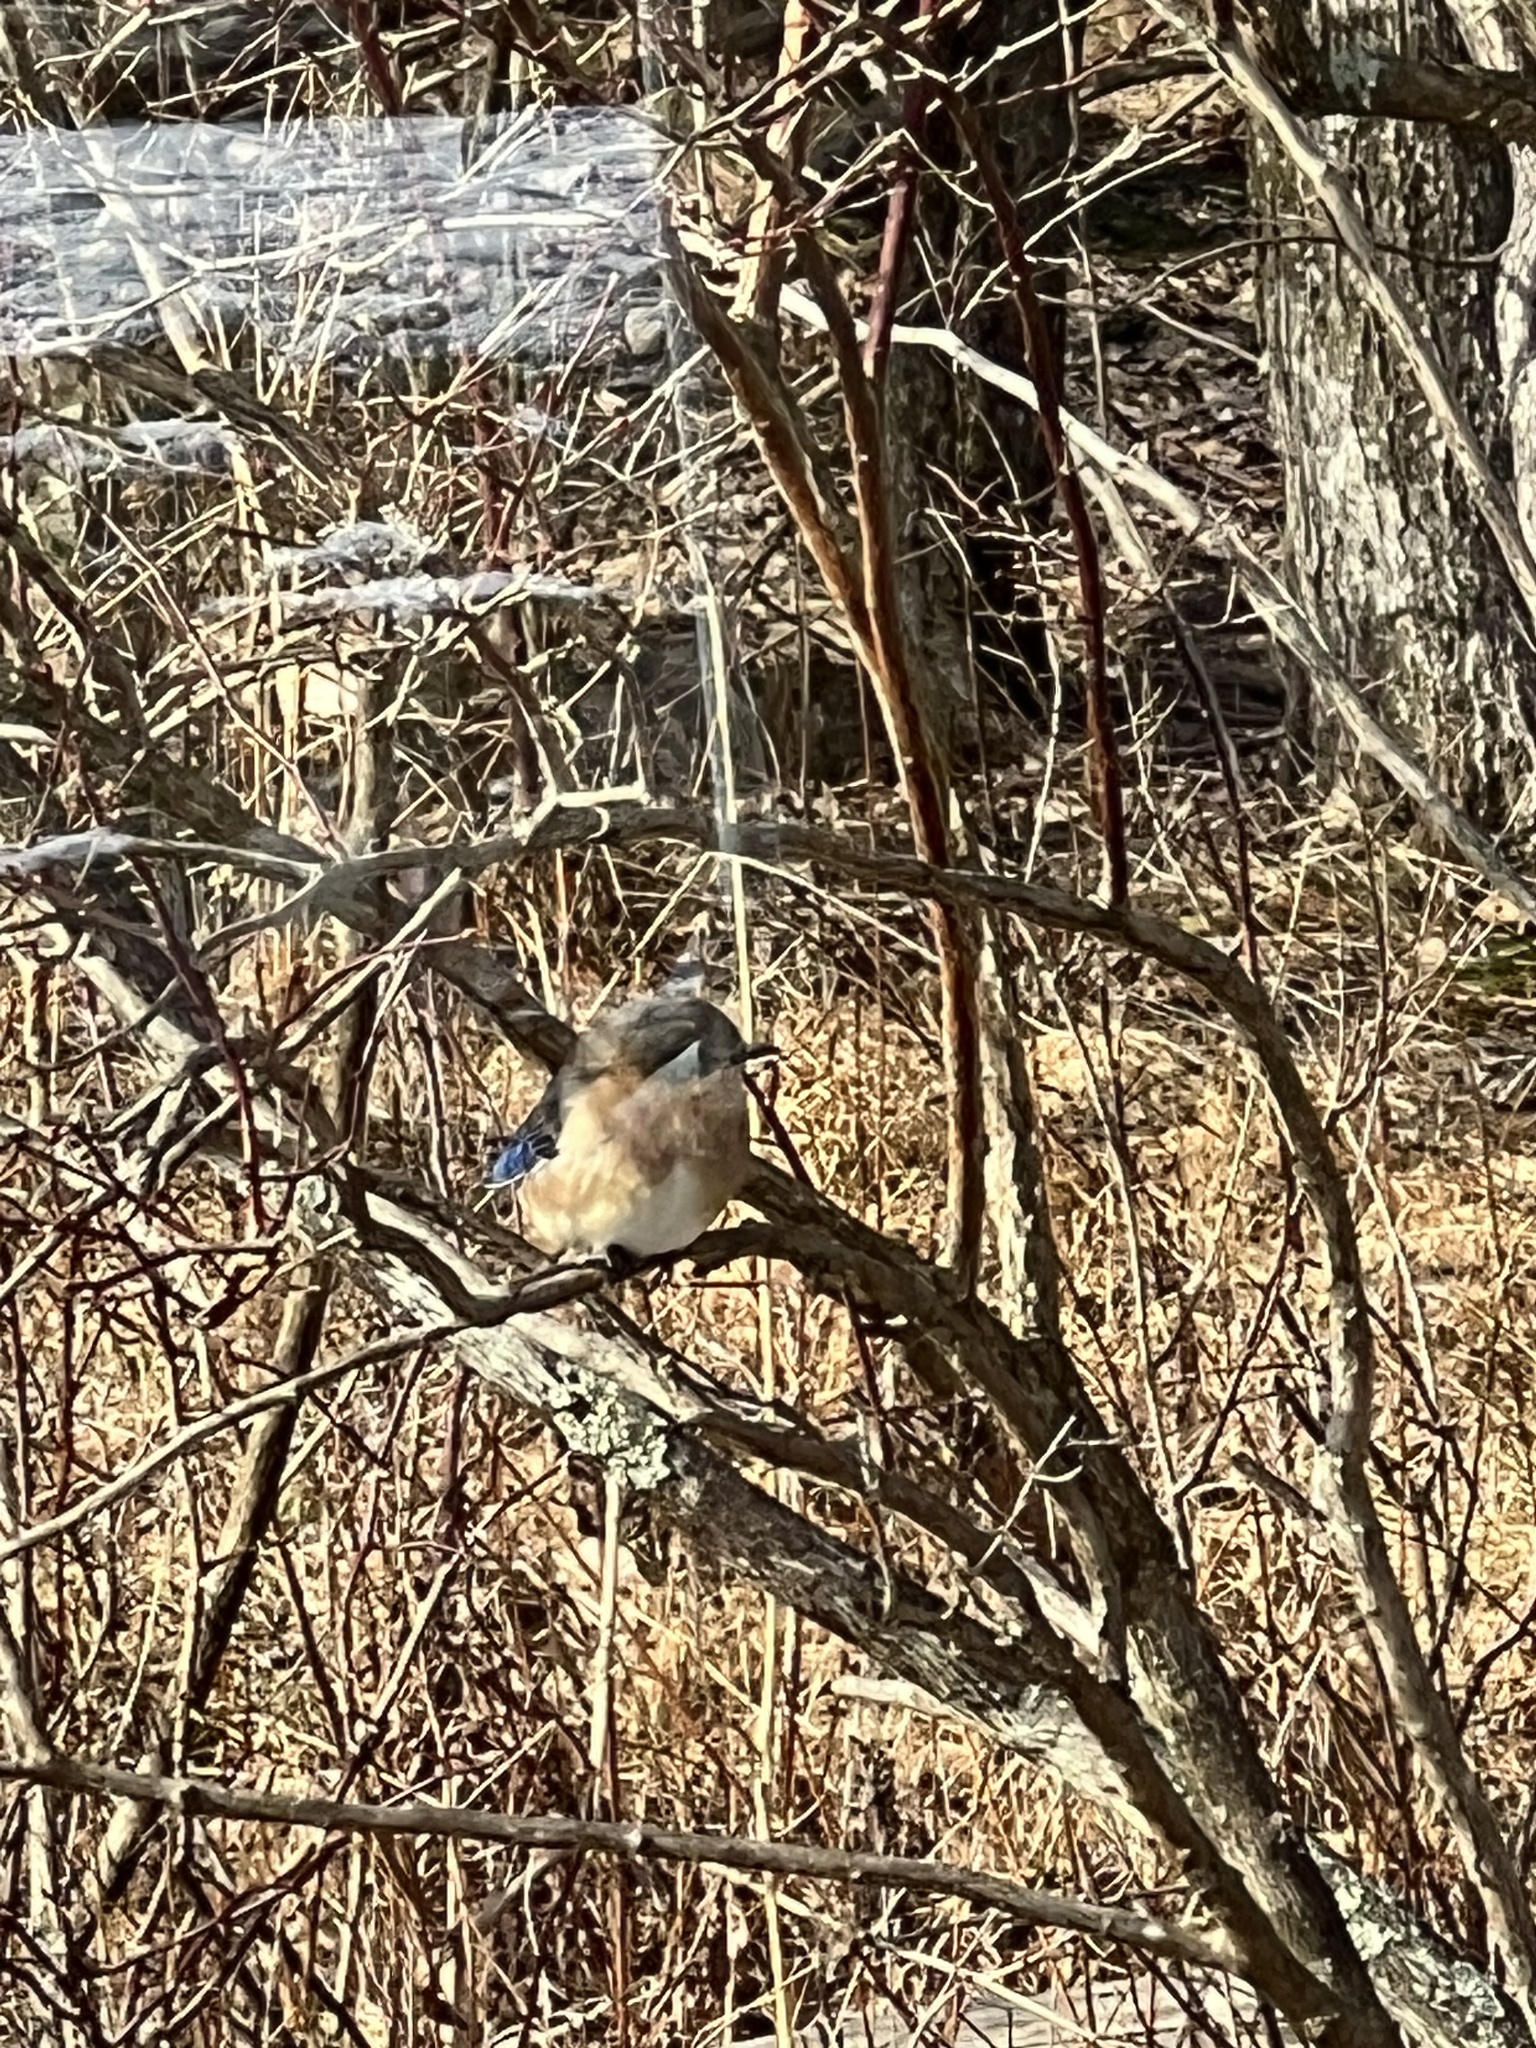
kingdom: Animalia
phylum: Chordata
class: Aves
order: Passeriformes
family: Turdidae
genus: Sialia
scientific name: Sialia sialis
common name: Eastern bluebird
